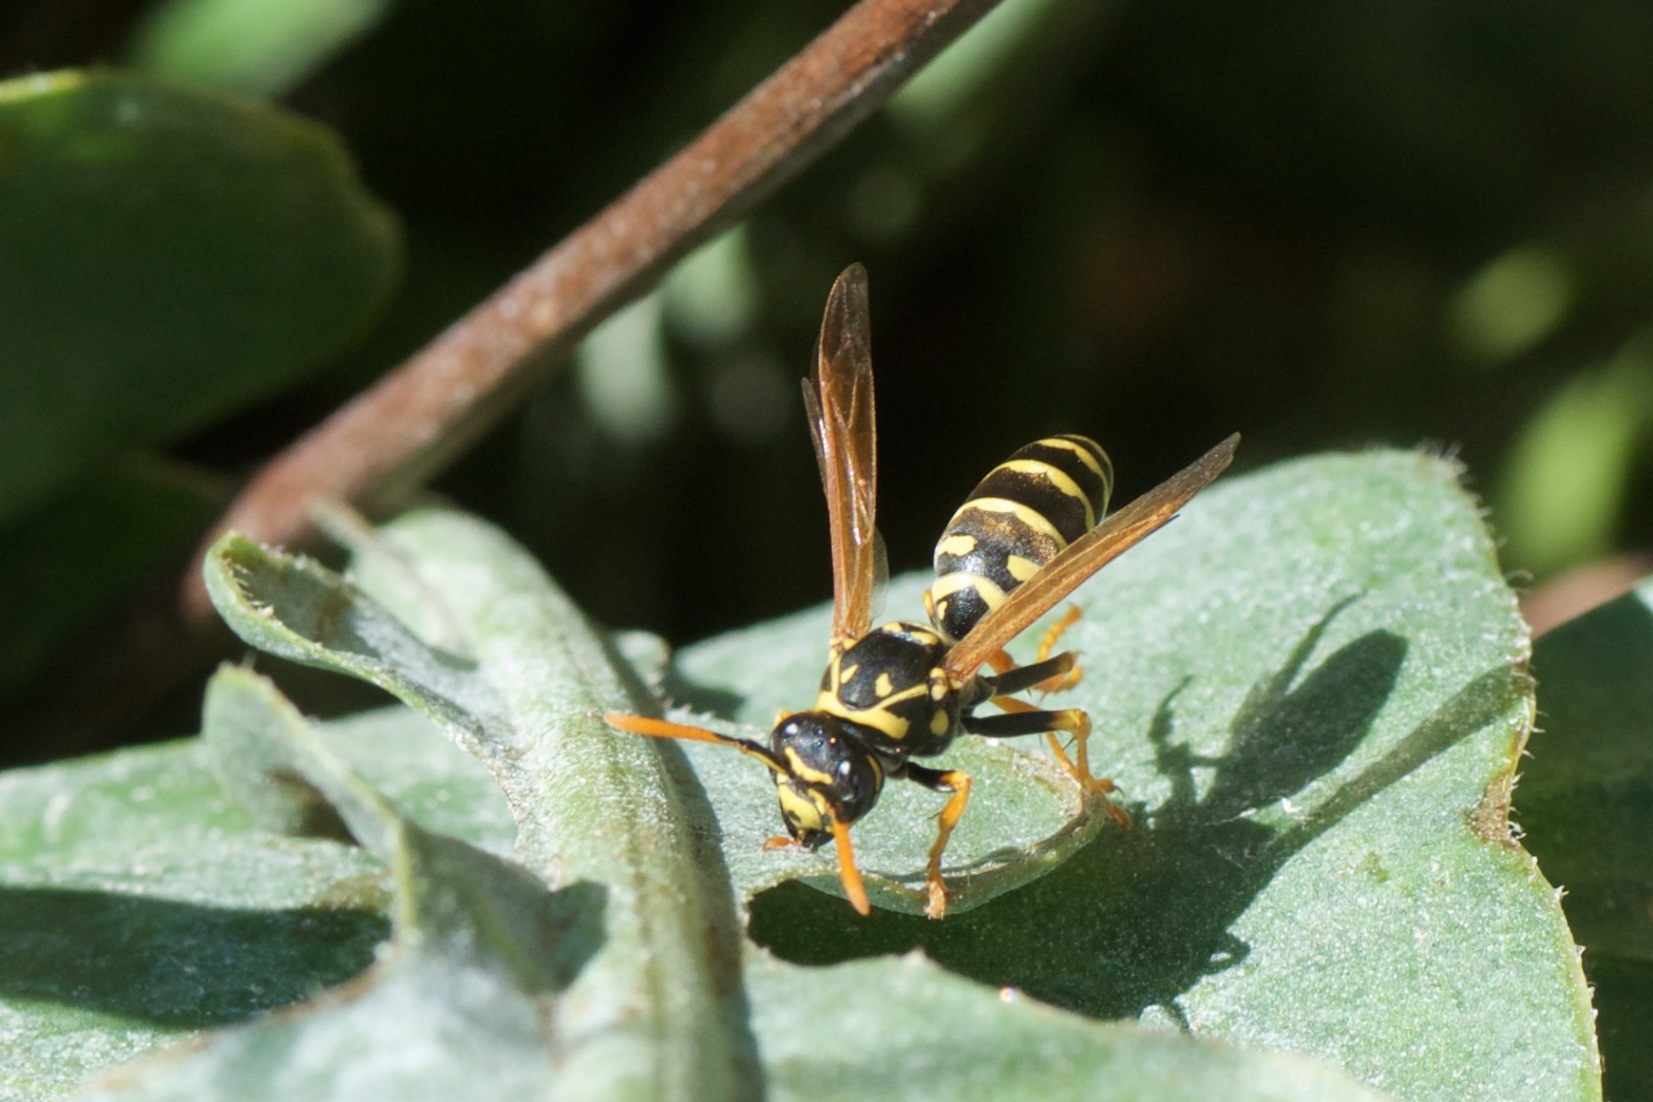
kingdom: Animalia
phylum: Arthropoda
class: Insecta
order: Hymenoptera
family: Eumenidae
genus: Polistes
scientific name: Polistes dominula
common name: Paper wasp
